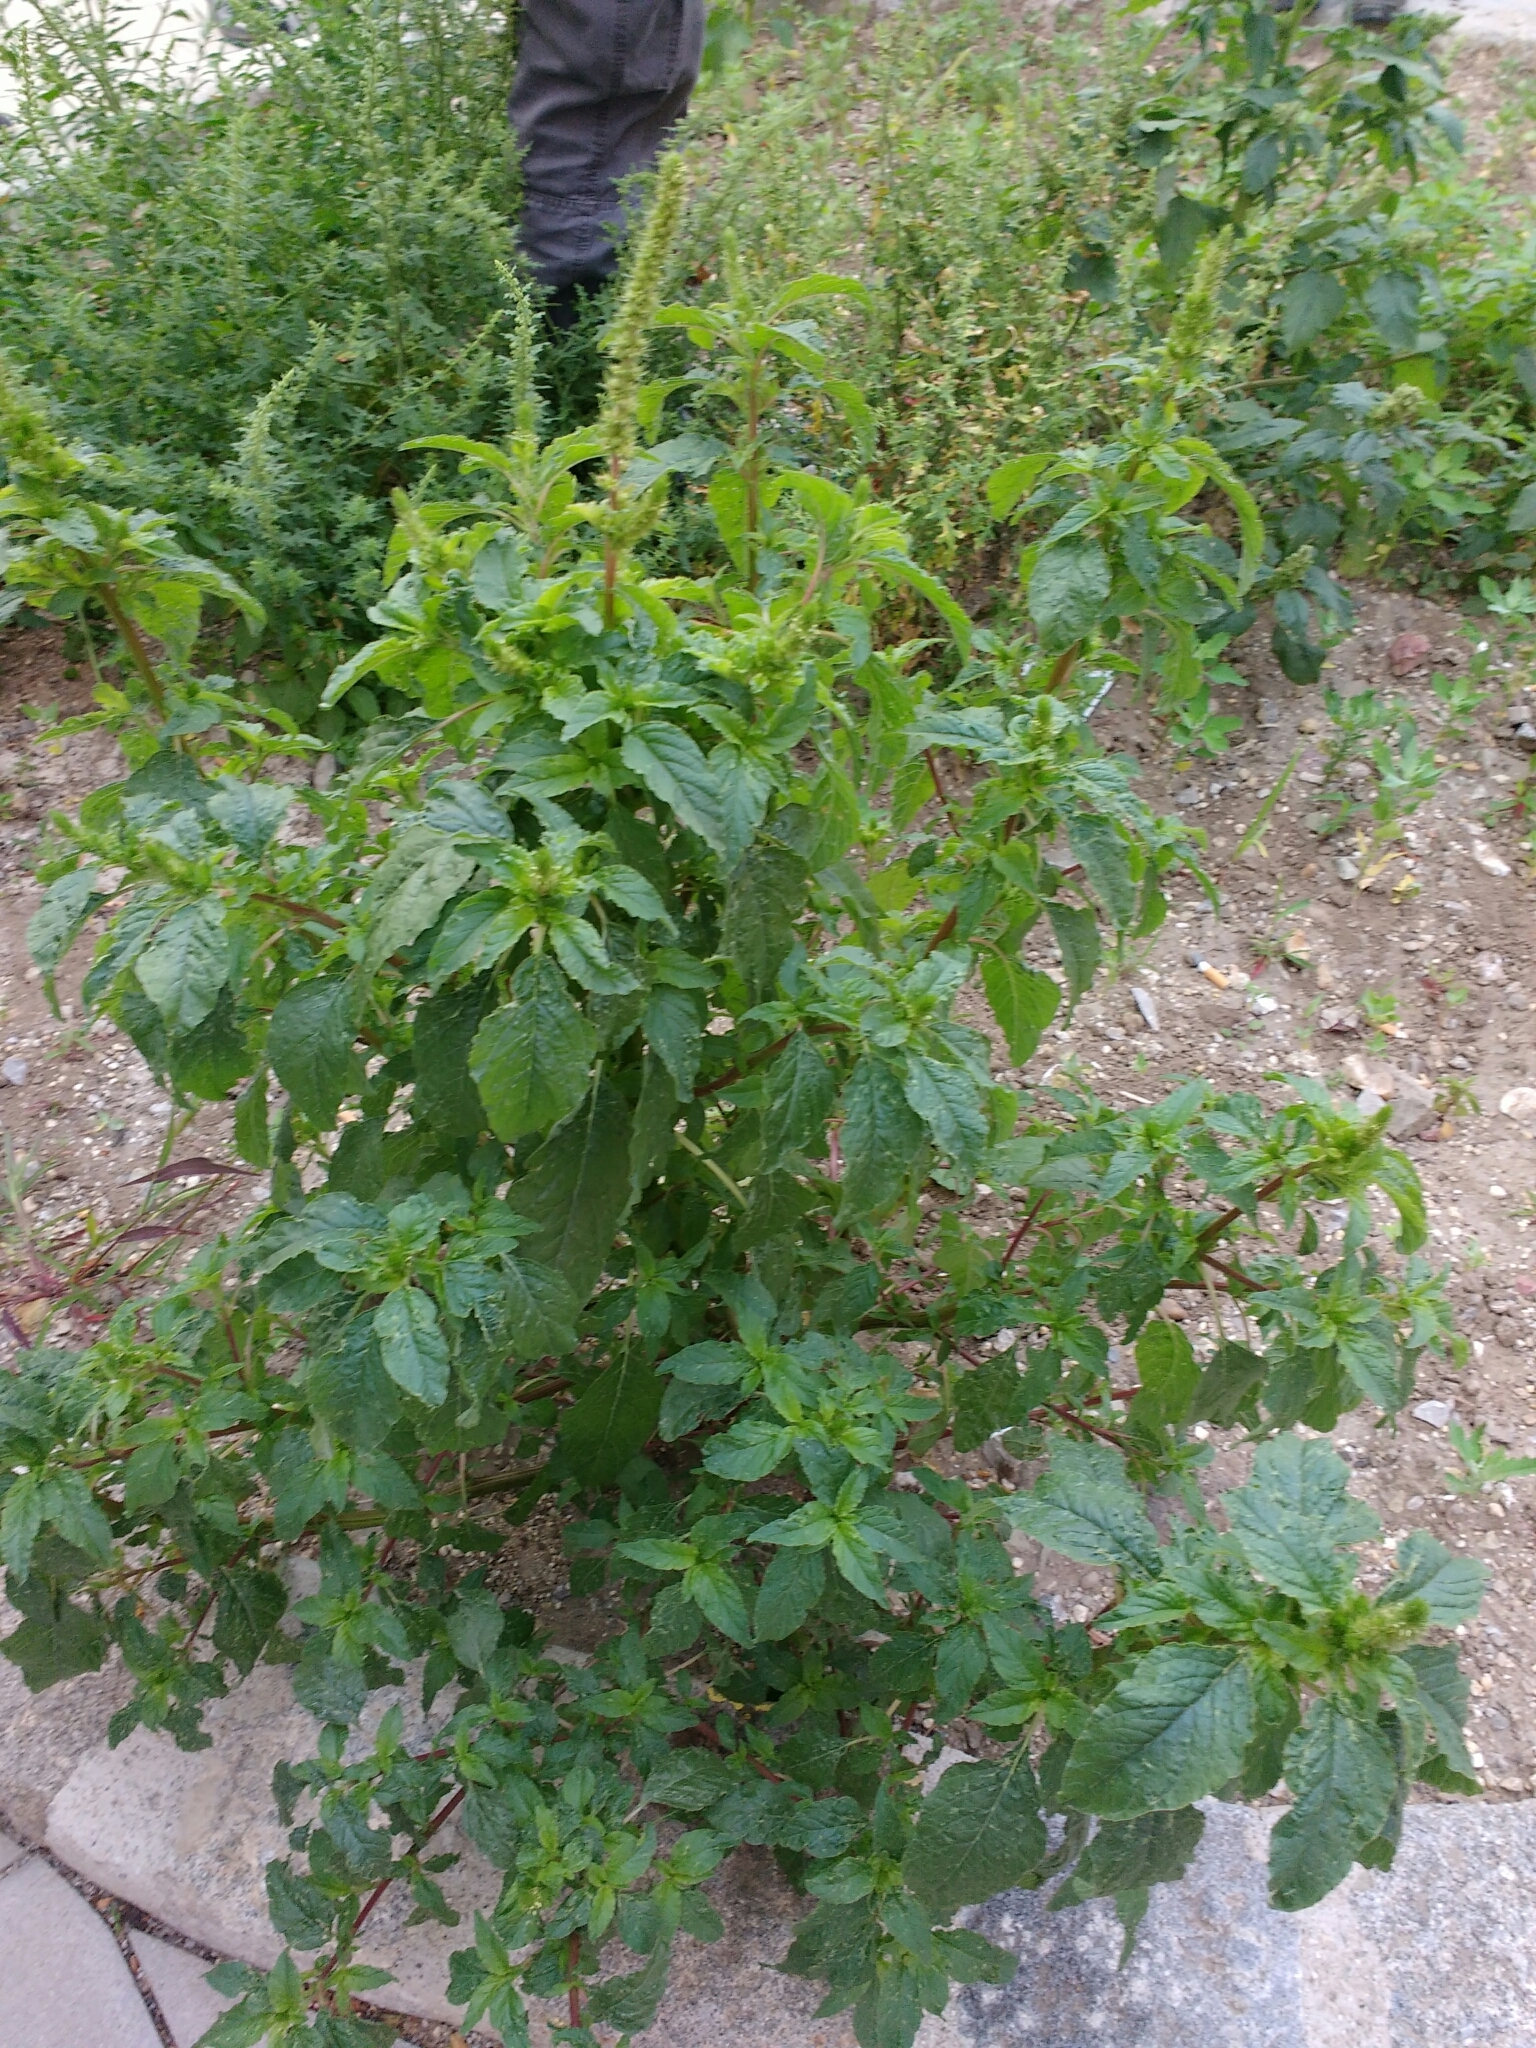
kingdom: Plantae
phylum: Tracheophyta
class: Magnoliopsida
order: Caryophyllales
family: Amaranthaceae
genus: Amaranthus
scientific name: Amaranthus powellii
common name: Powell's amaranth
